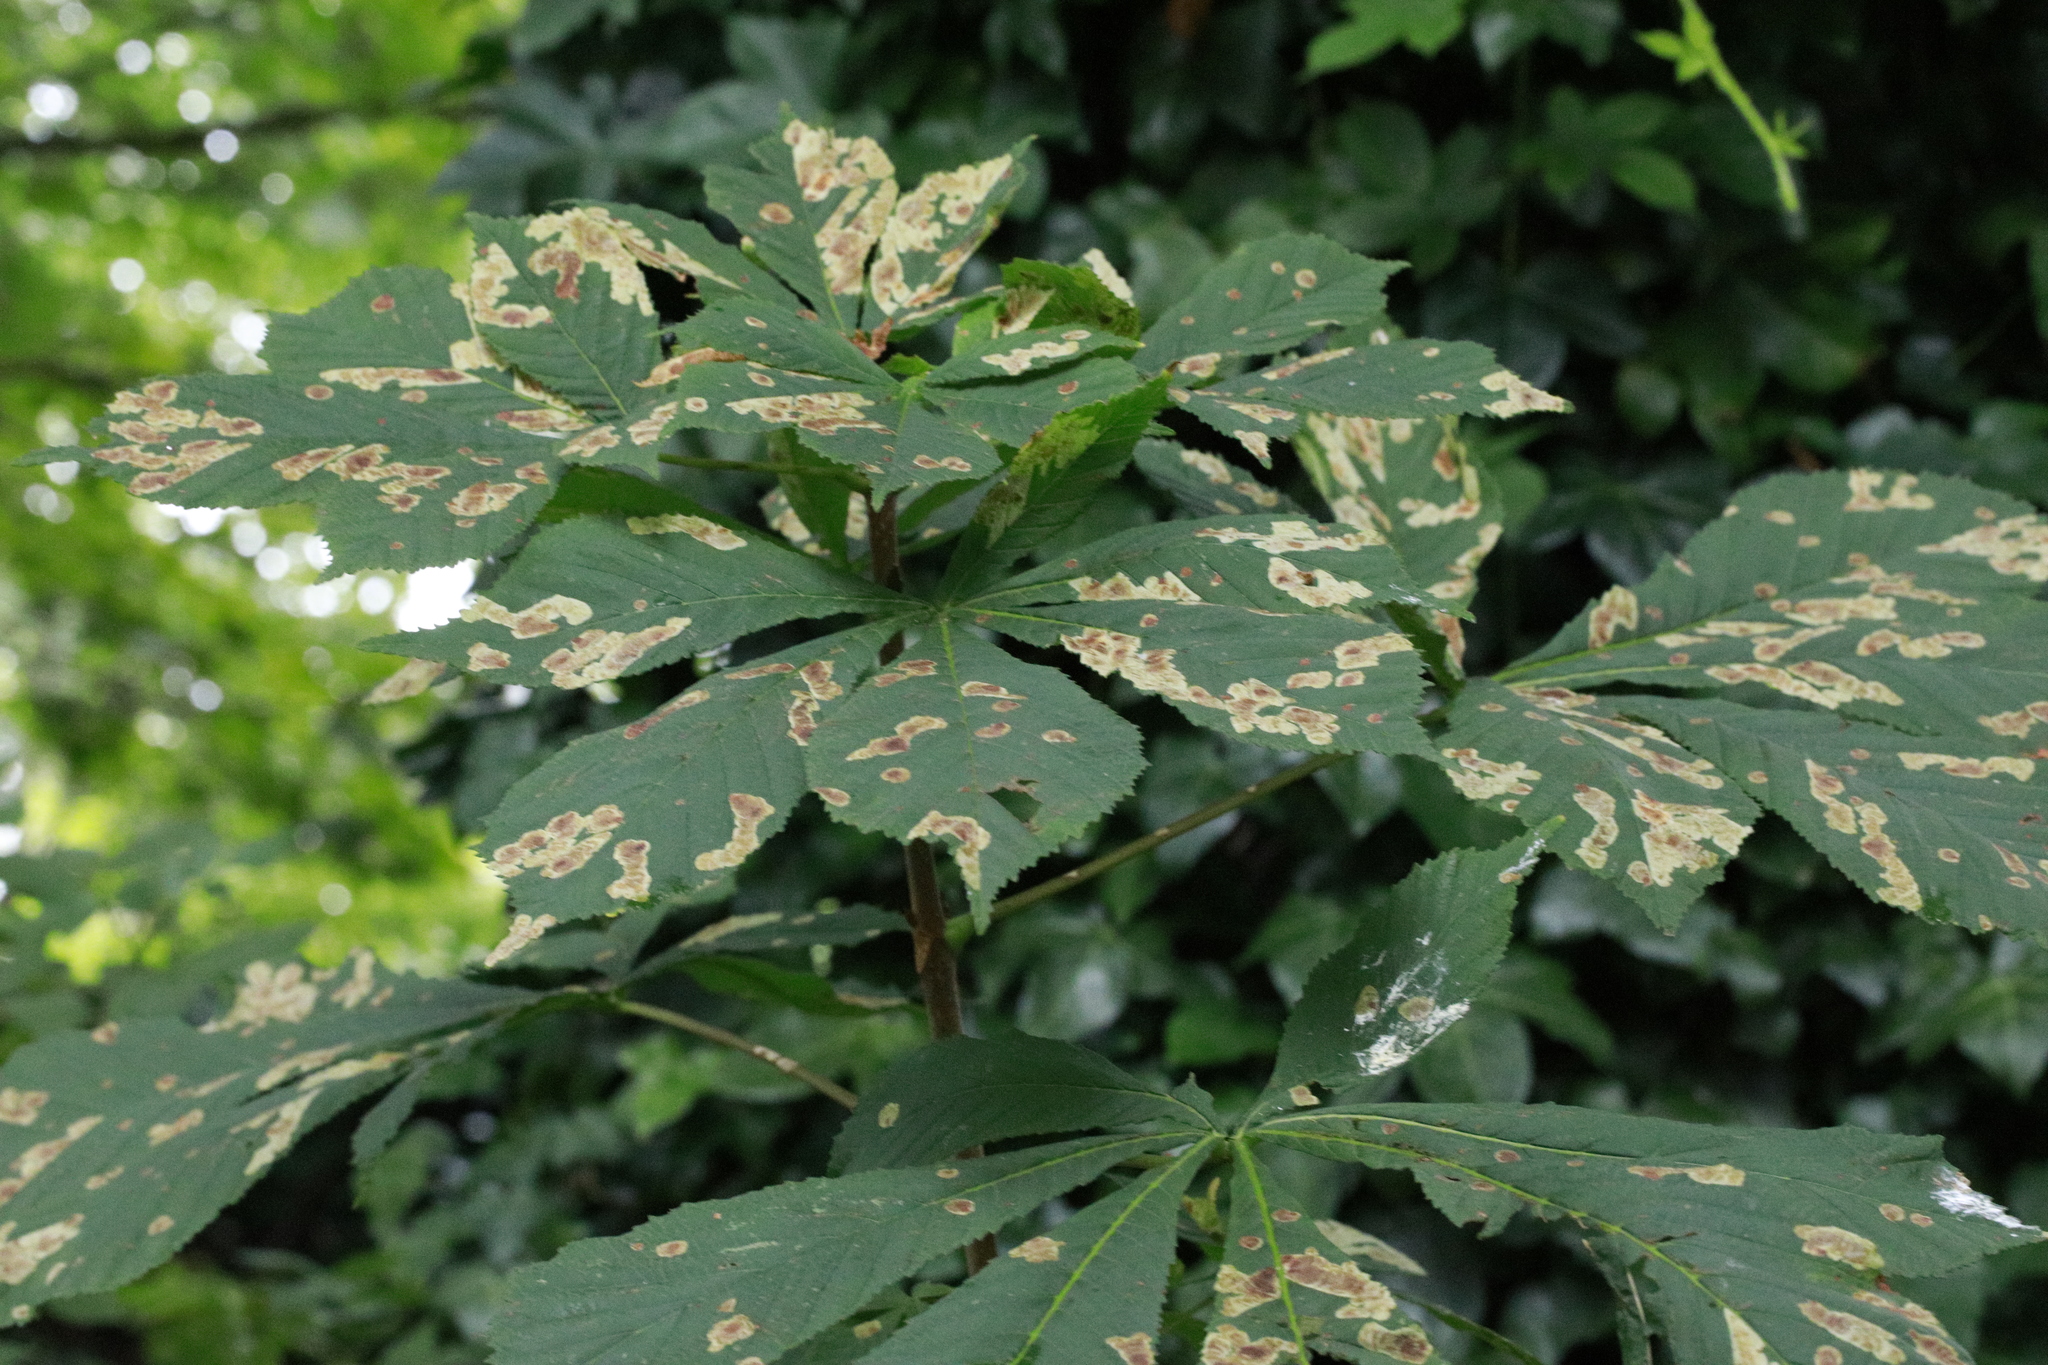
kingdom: Animalia
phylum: Arthropoda
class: Insecta
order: Lepidoptera
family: Gracillariidae
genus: Cameraria
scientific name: Cameraria ohridella
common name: Horse-chestnut leaf-miner
